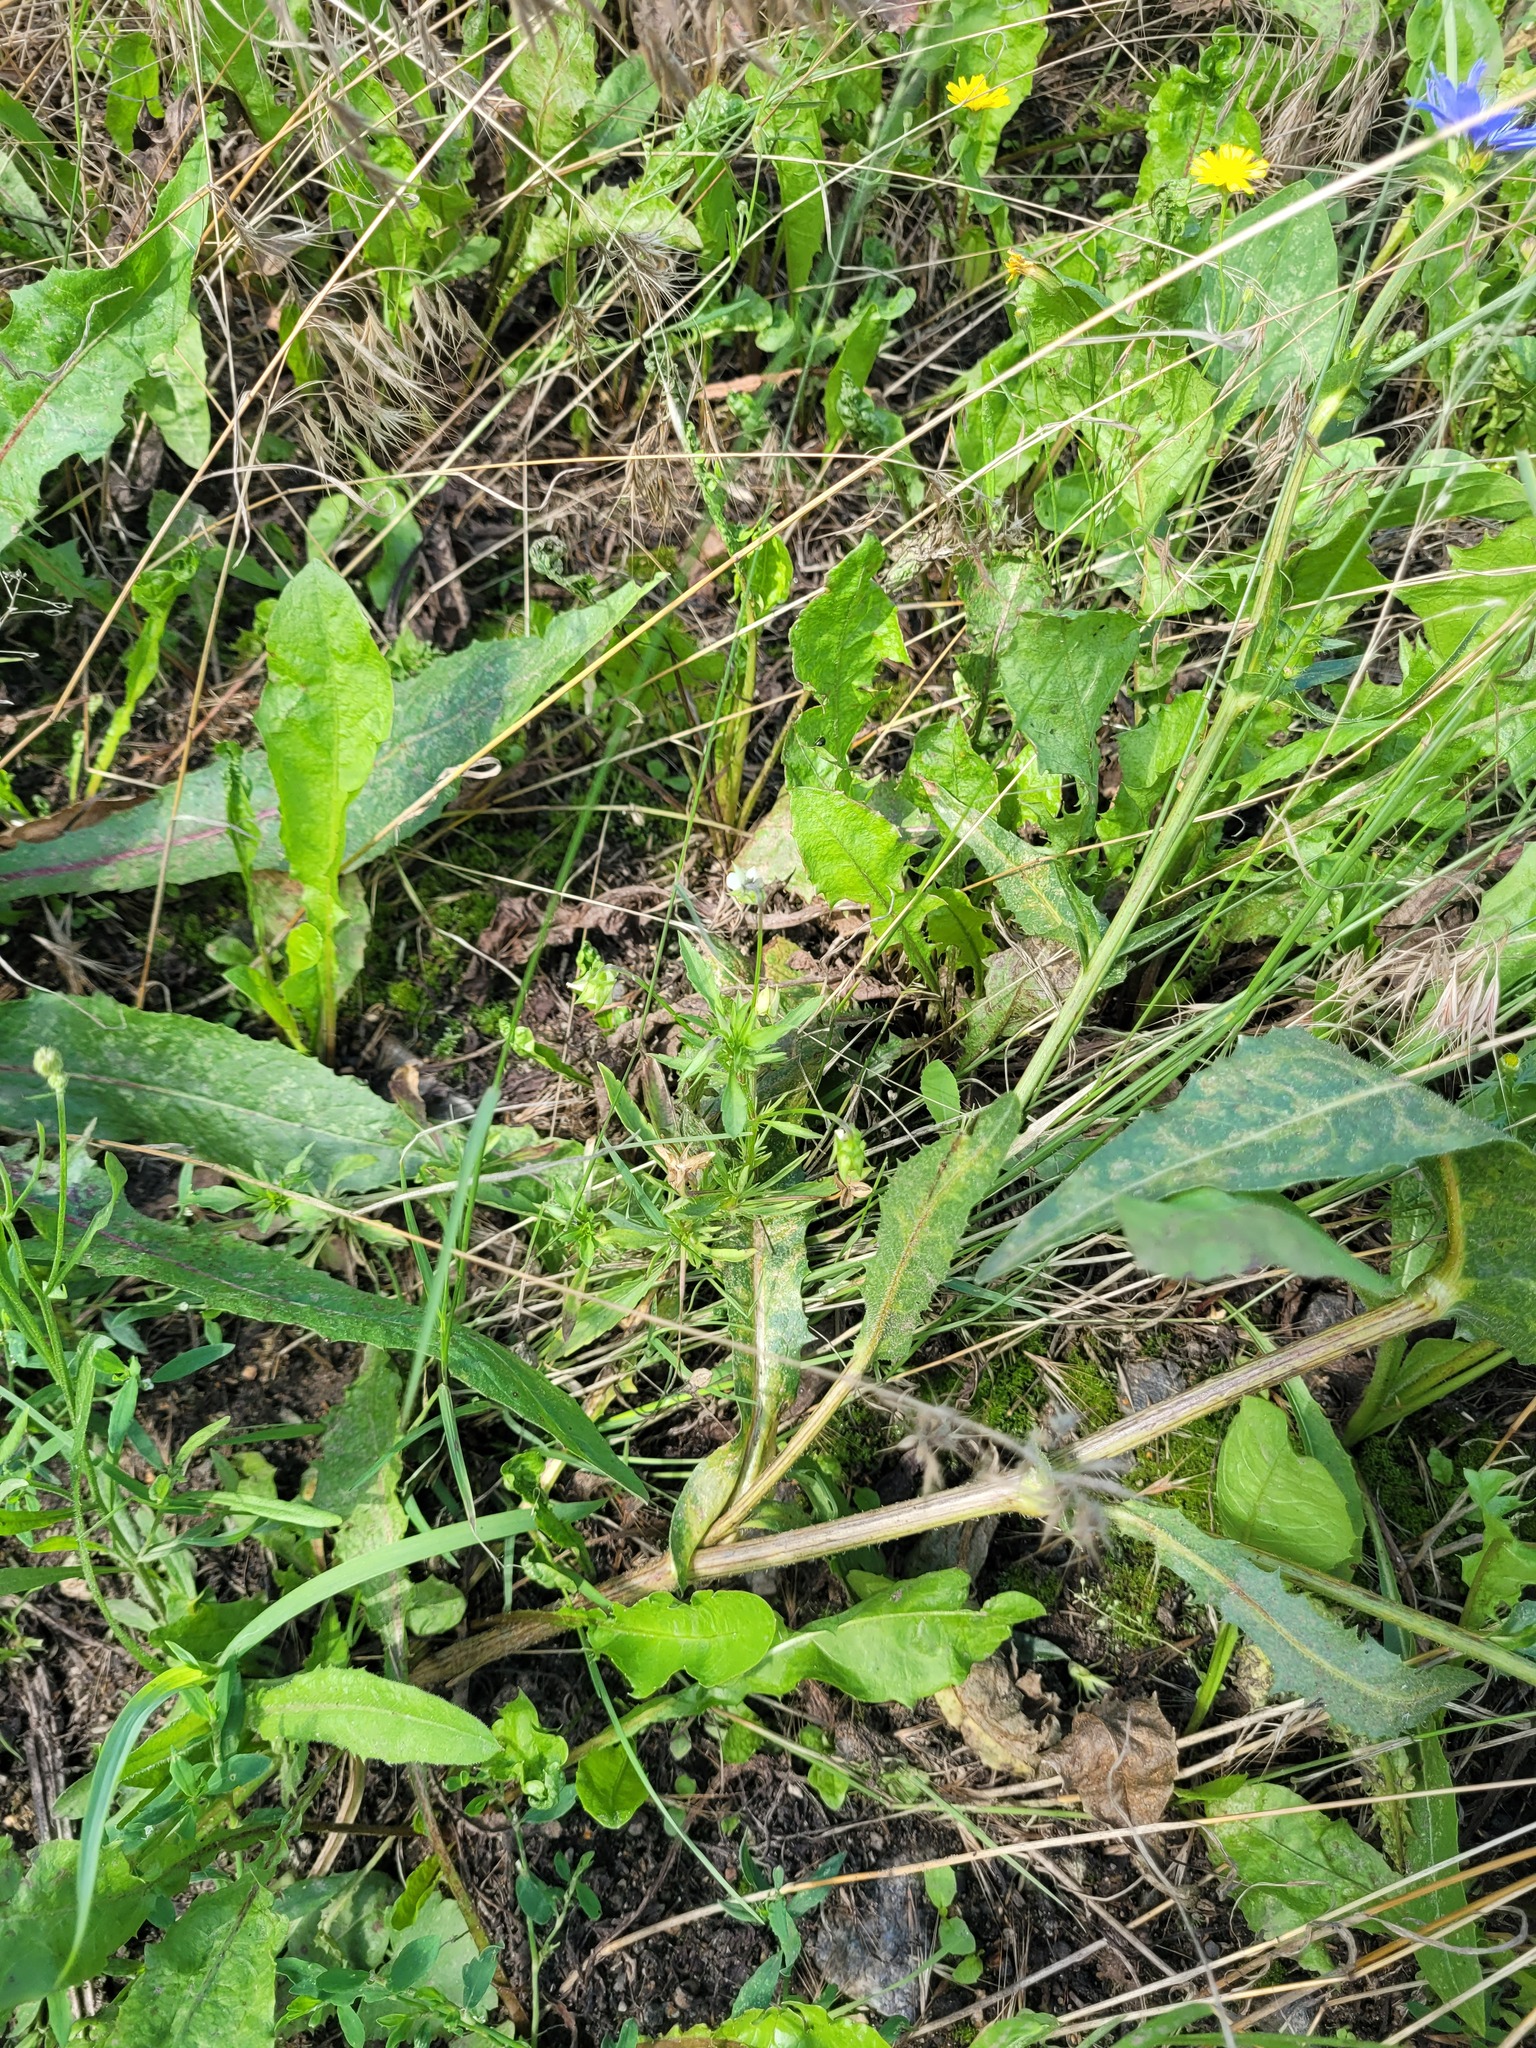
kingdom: Plantae
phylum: Tracheophyta
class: Magnoliopsida
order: Malpighiales
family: Violaceae
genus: Viola
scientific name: Viola arvensis
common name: Field pansy
